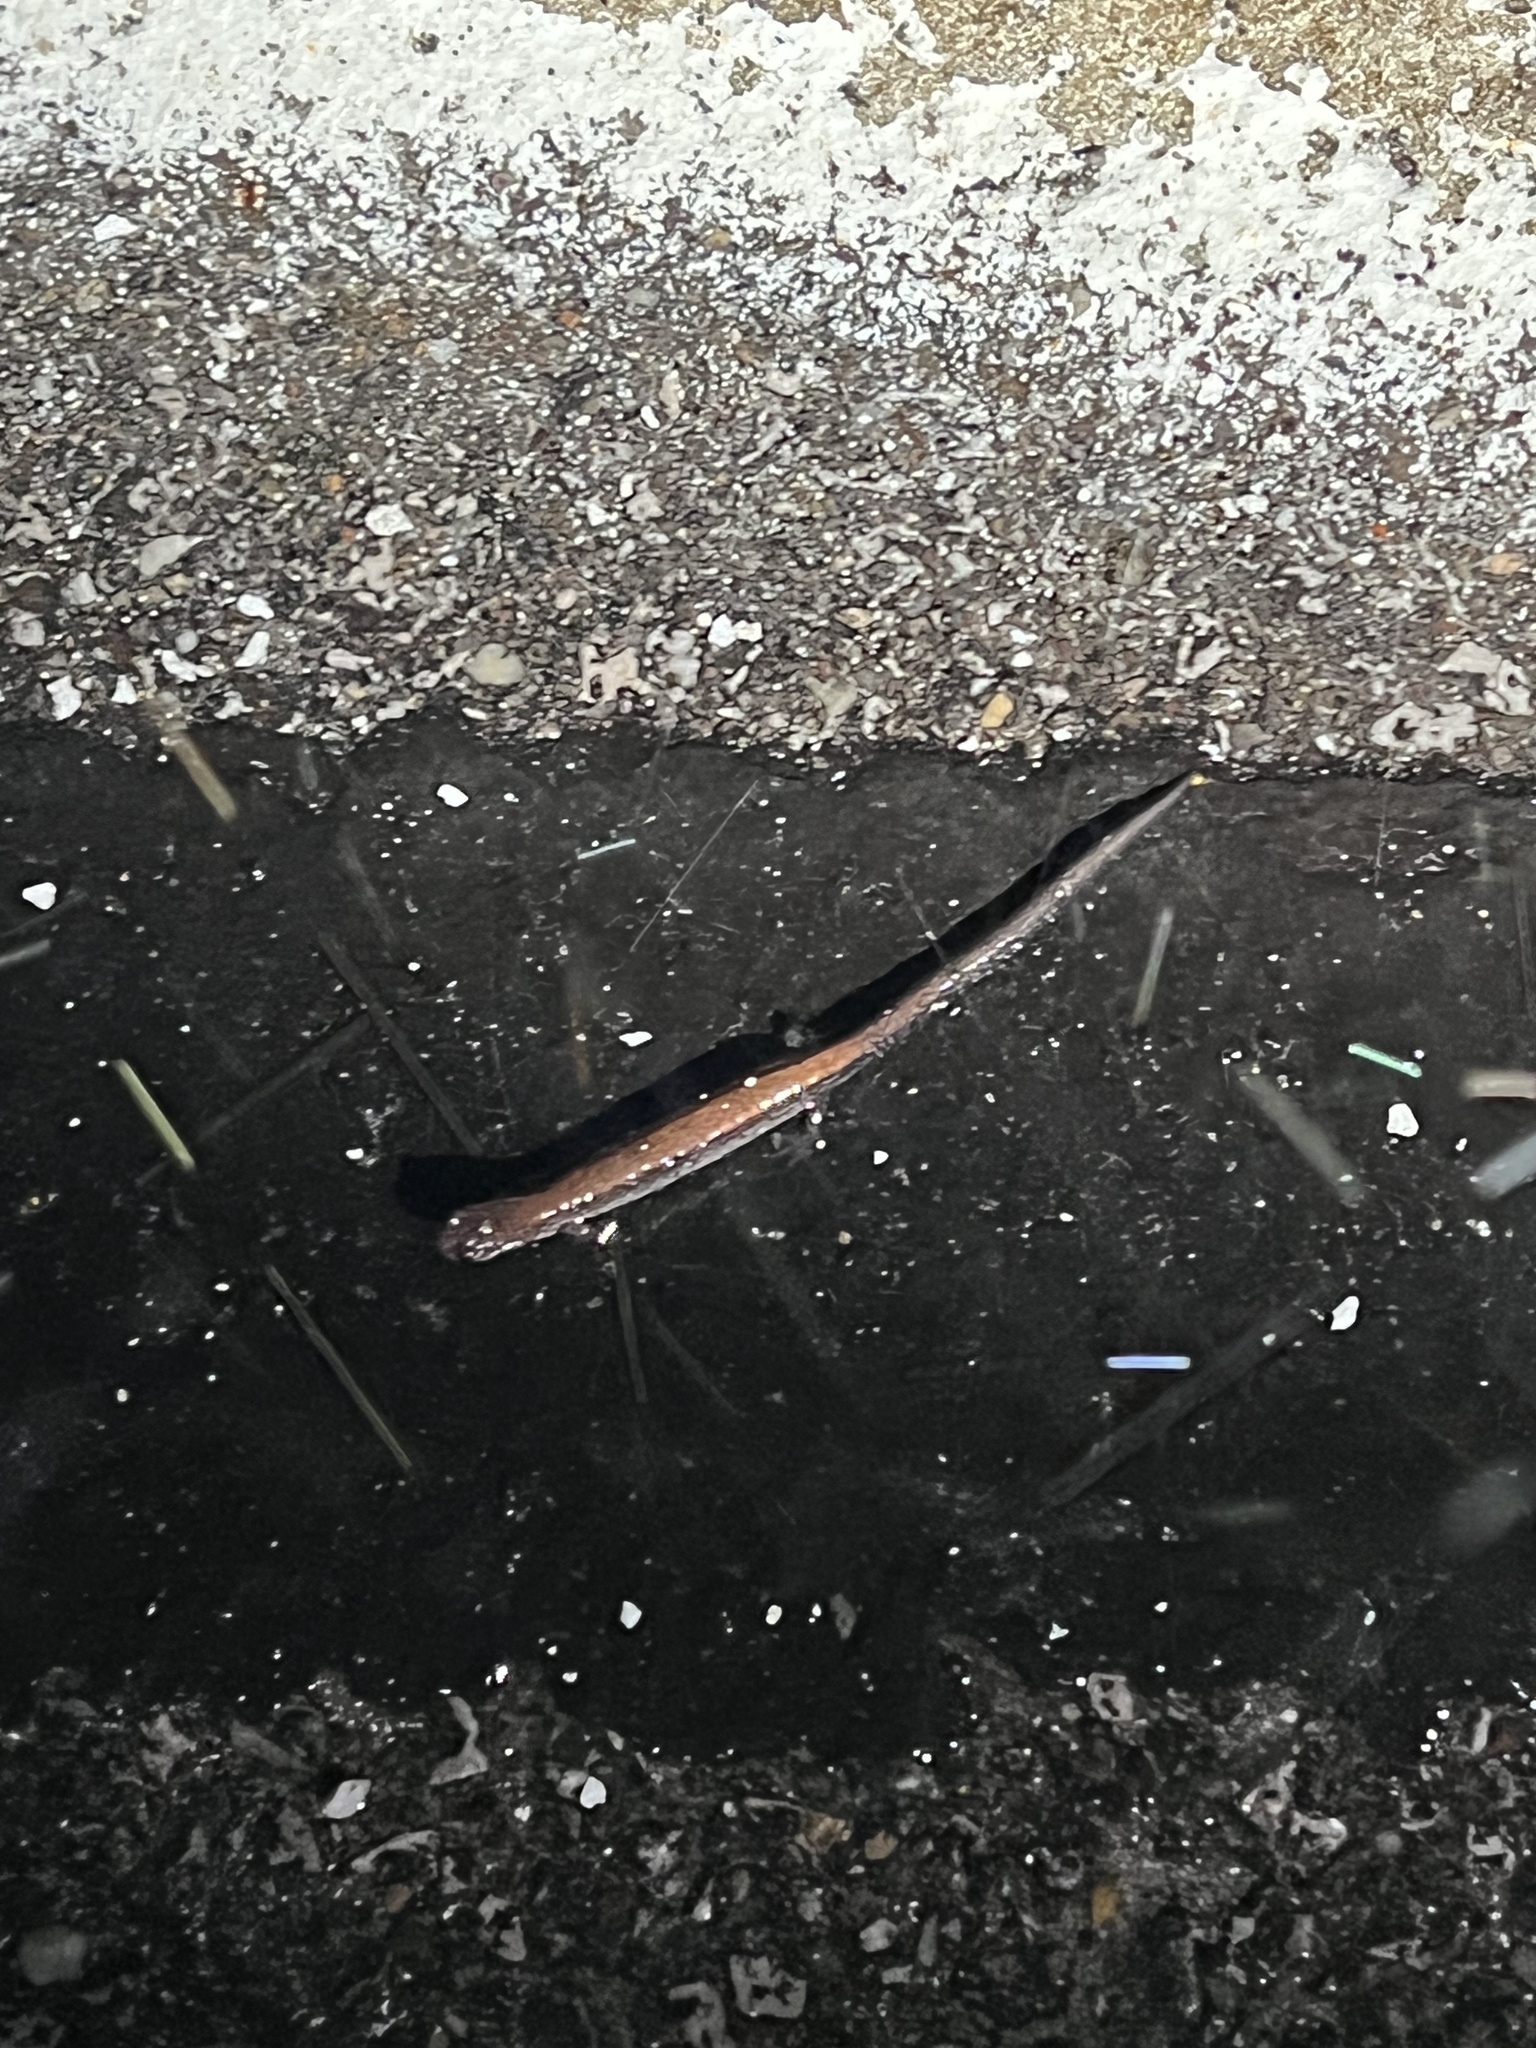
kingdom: Animalia
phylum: Chordata
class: Amphibia
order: Caudata
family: Plethodontidae
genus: Plethodon
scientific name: Plethodon cinereus
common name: Redback salamander
